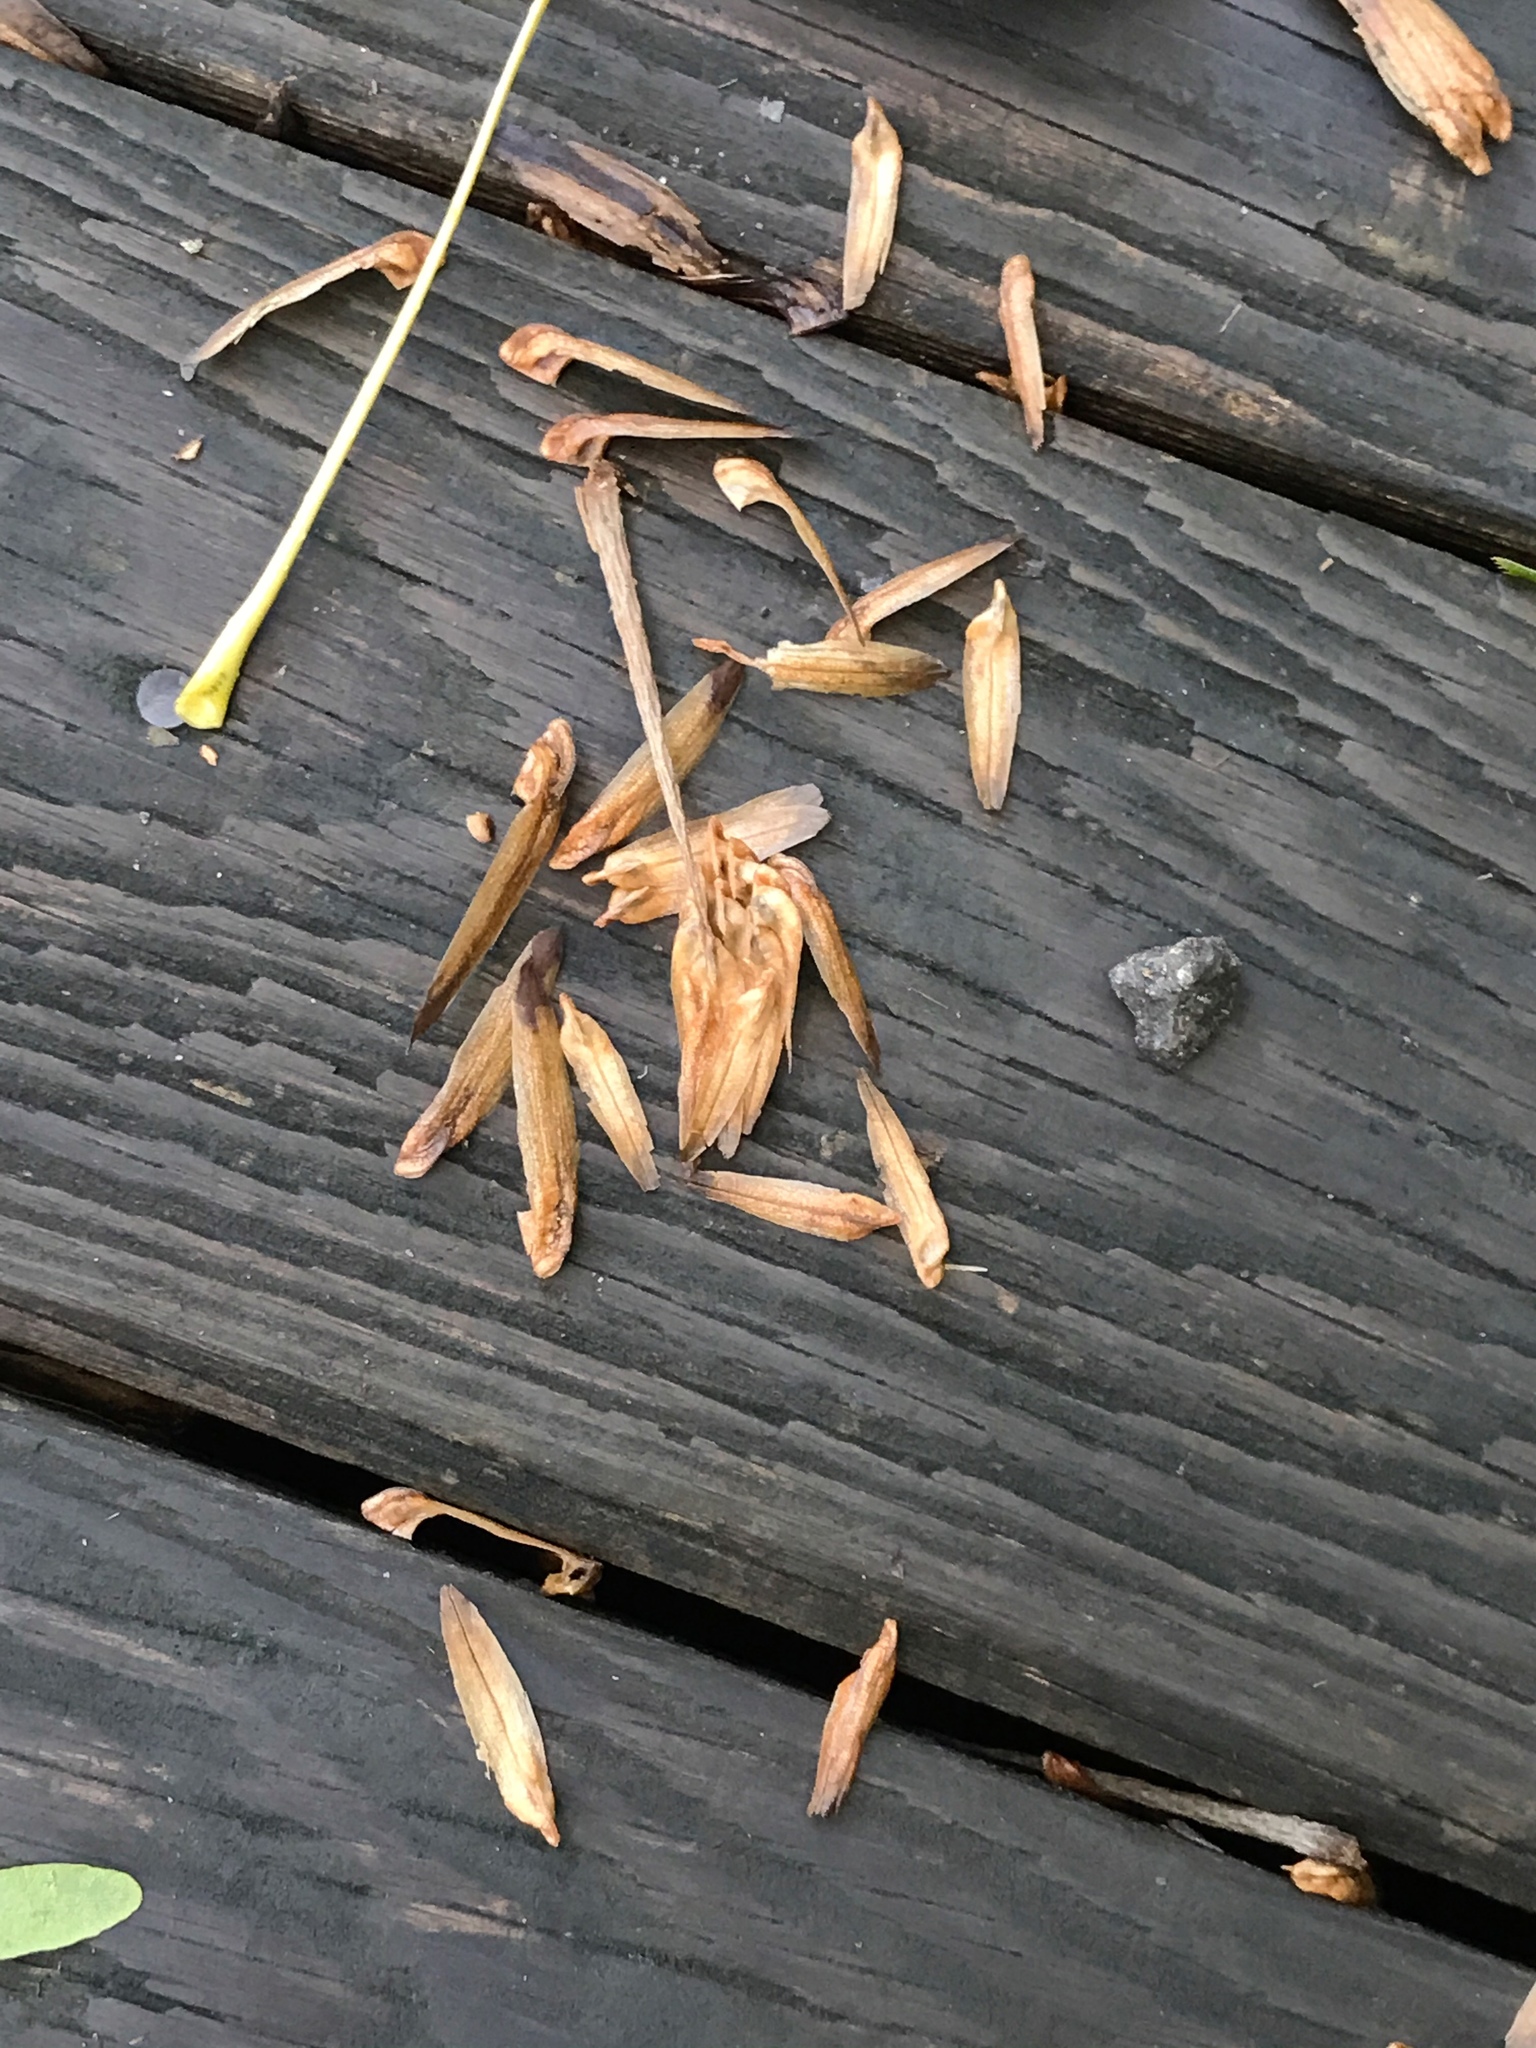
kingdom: Plantae
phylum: Tracheophyta
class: Magnoliopsida
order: Magnoliales
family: Magnoliaceae
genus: Liriodendron
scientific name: Liriodendron tulipifera
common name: Tulip tree
